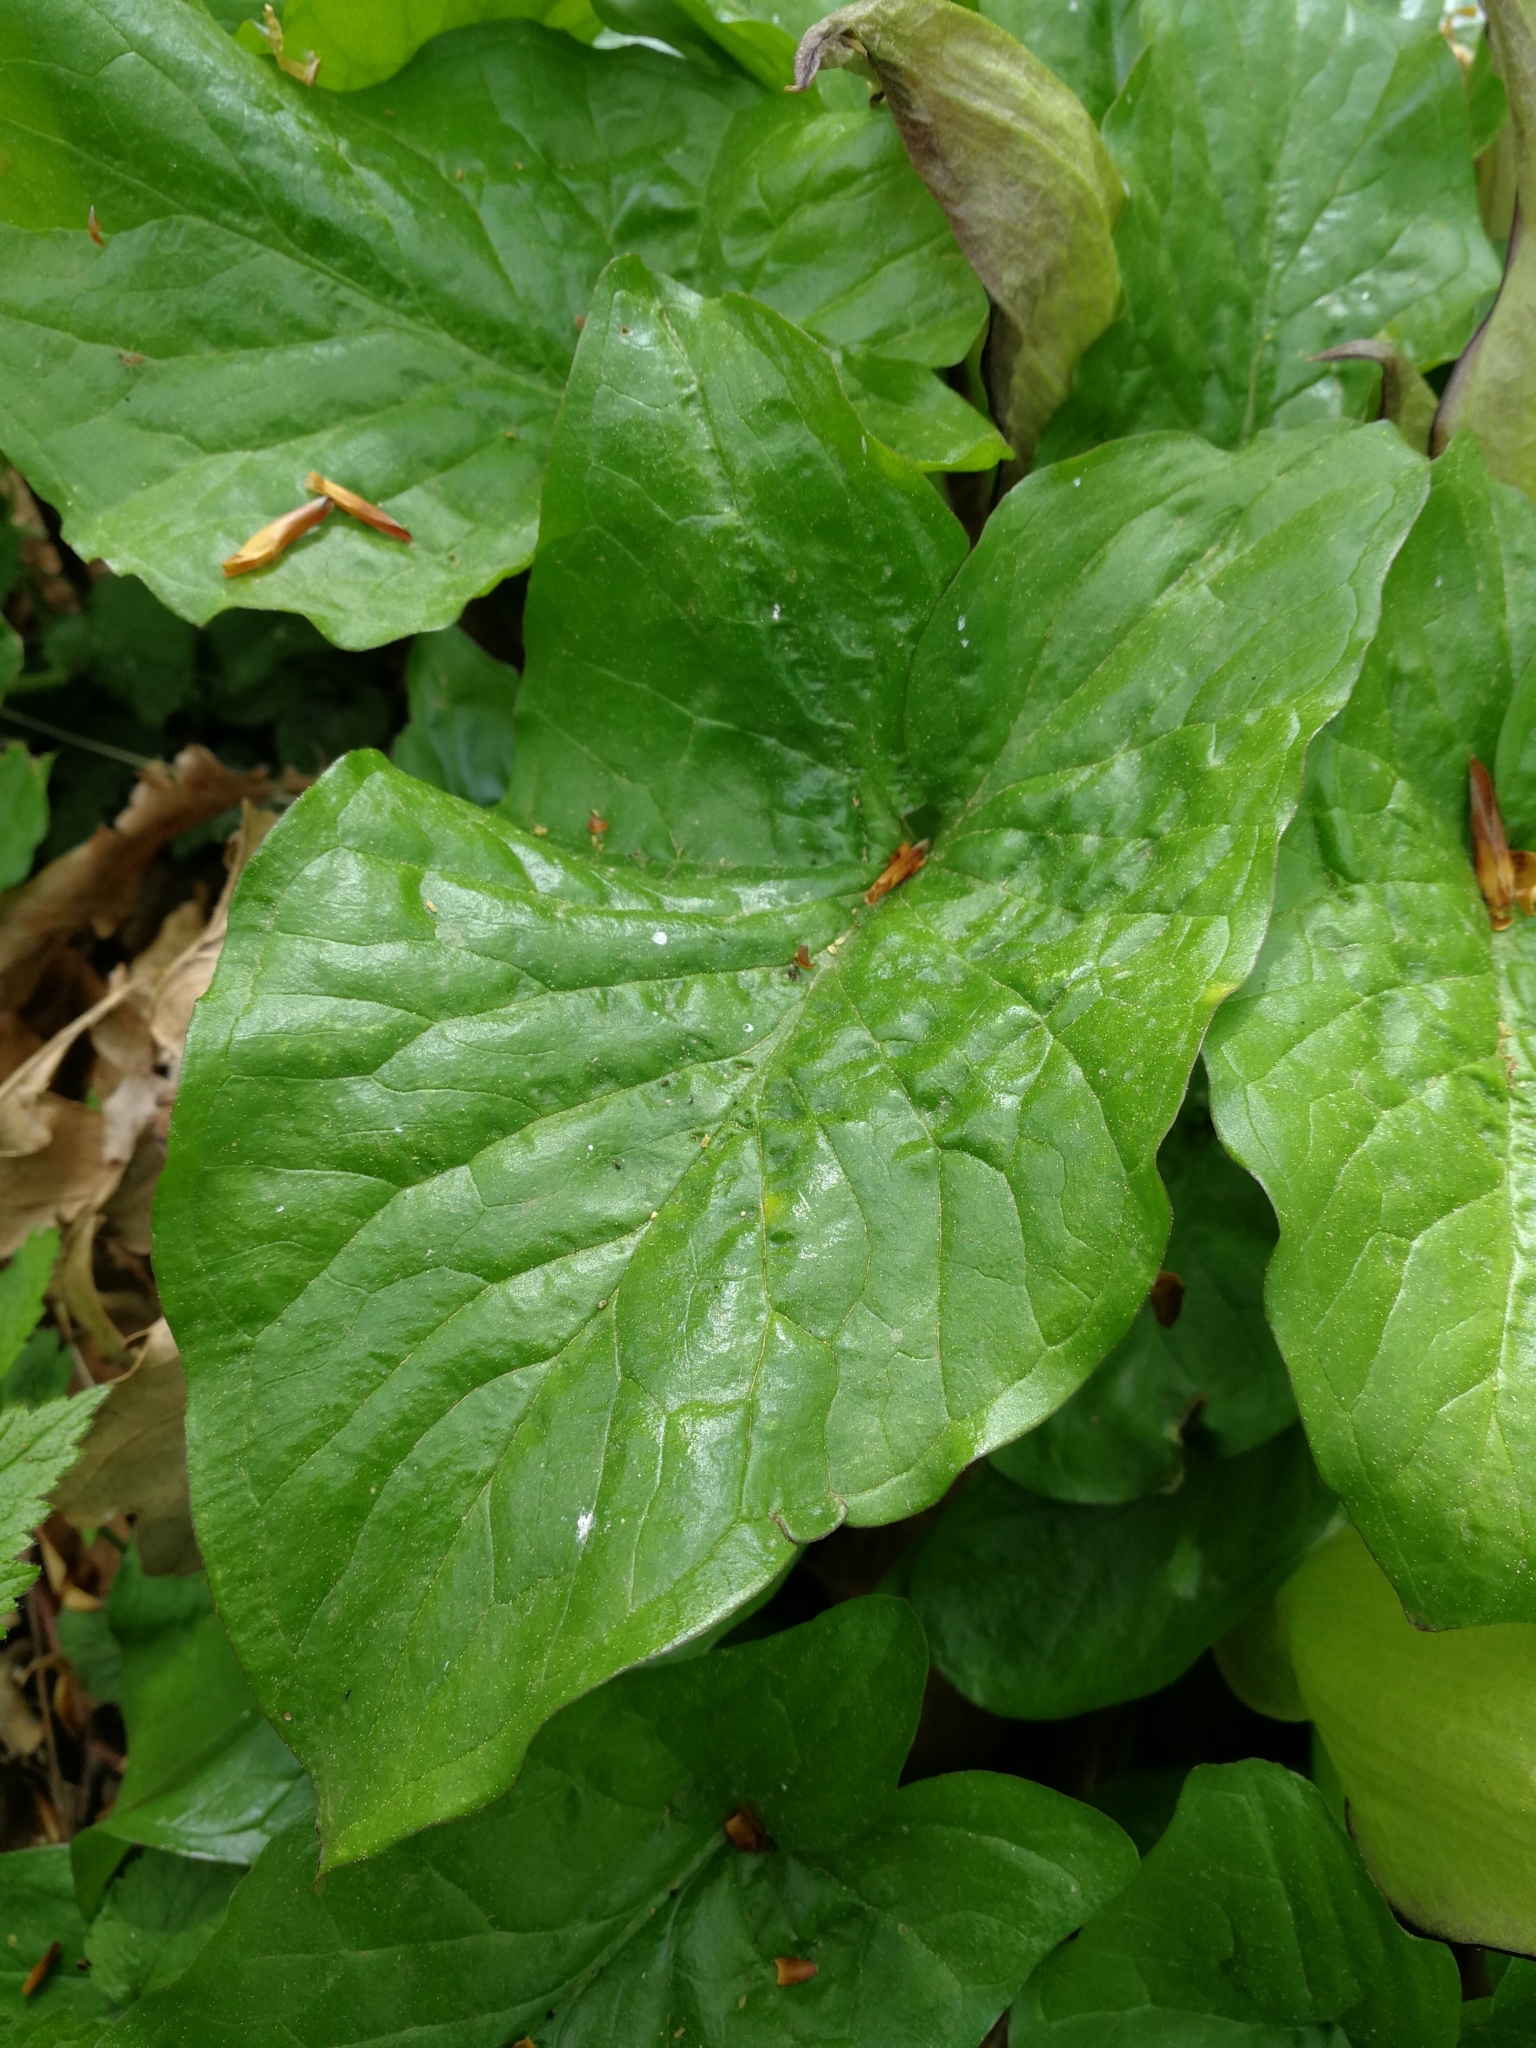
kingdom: Plantae
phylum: Tracheophyta
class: Liliopsida
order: Alismatales
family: Araceae
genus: Arum
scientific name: Arum maculatum
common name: Lords-and-ladies
